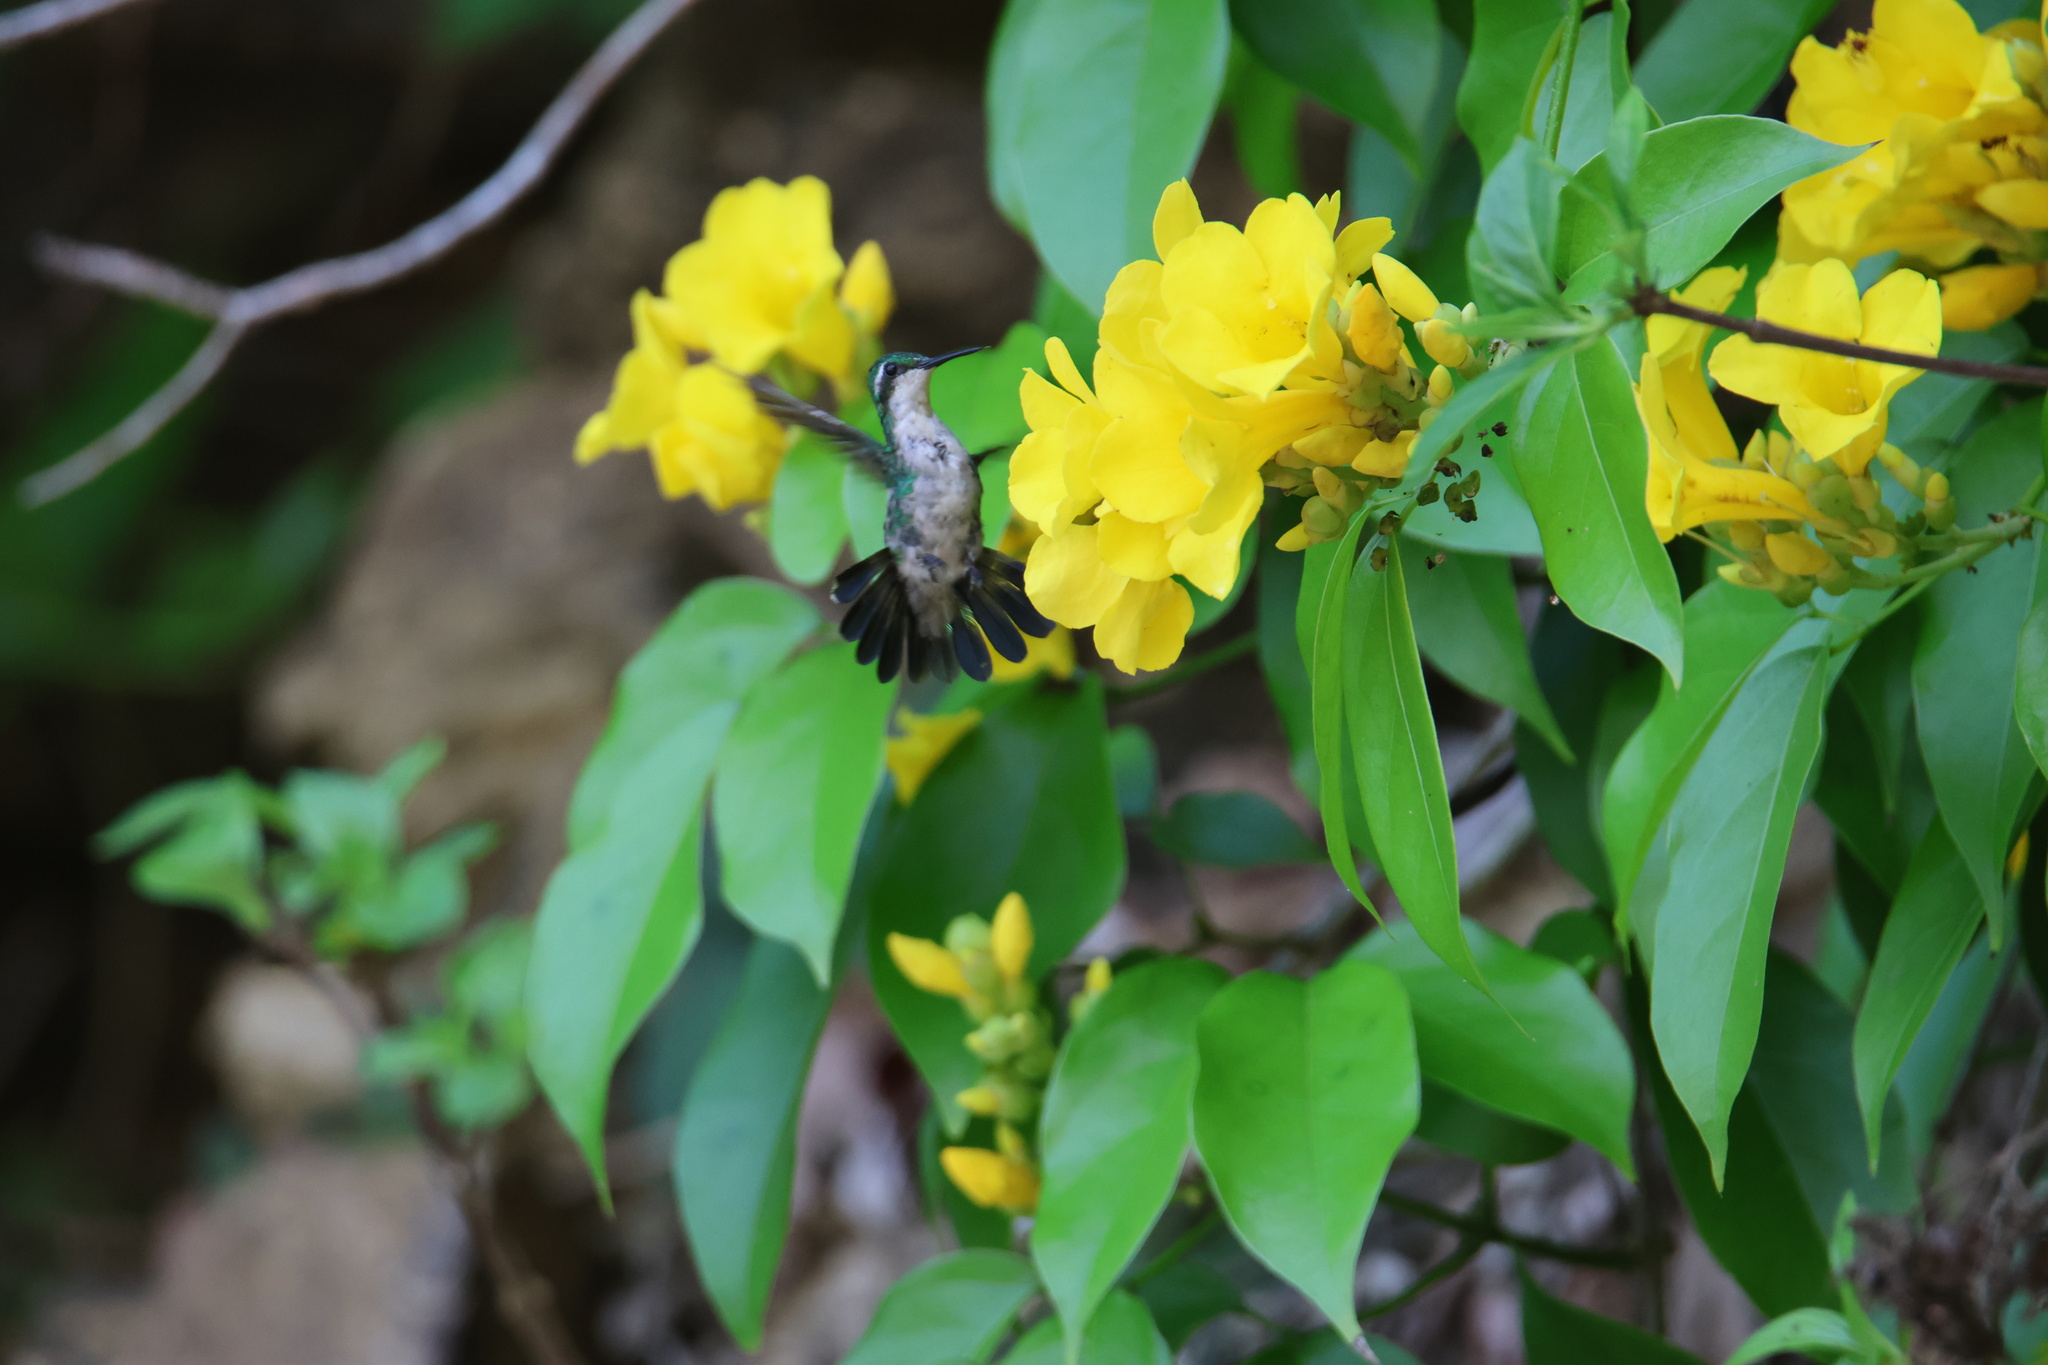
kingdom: Animalia
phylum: Chordata
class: Aves
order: Apodiformes
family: Trochilidae
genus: Chlorostilbon
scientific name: Chlorostilbon assimilis
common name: Garden emerald
